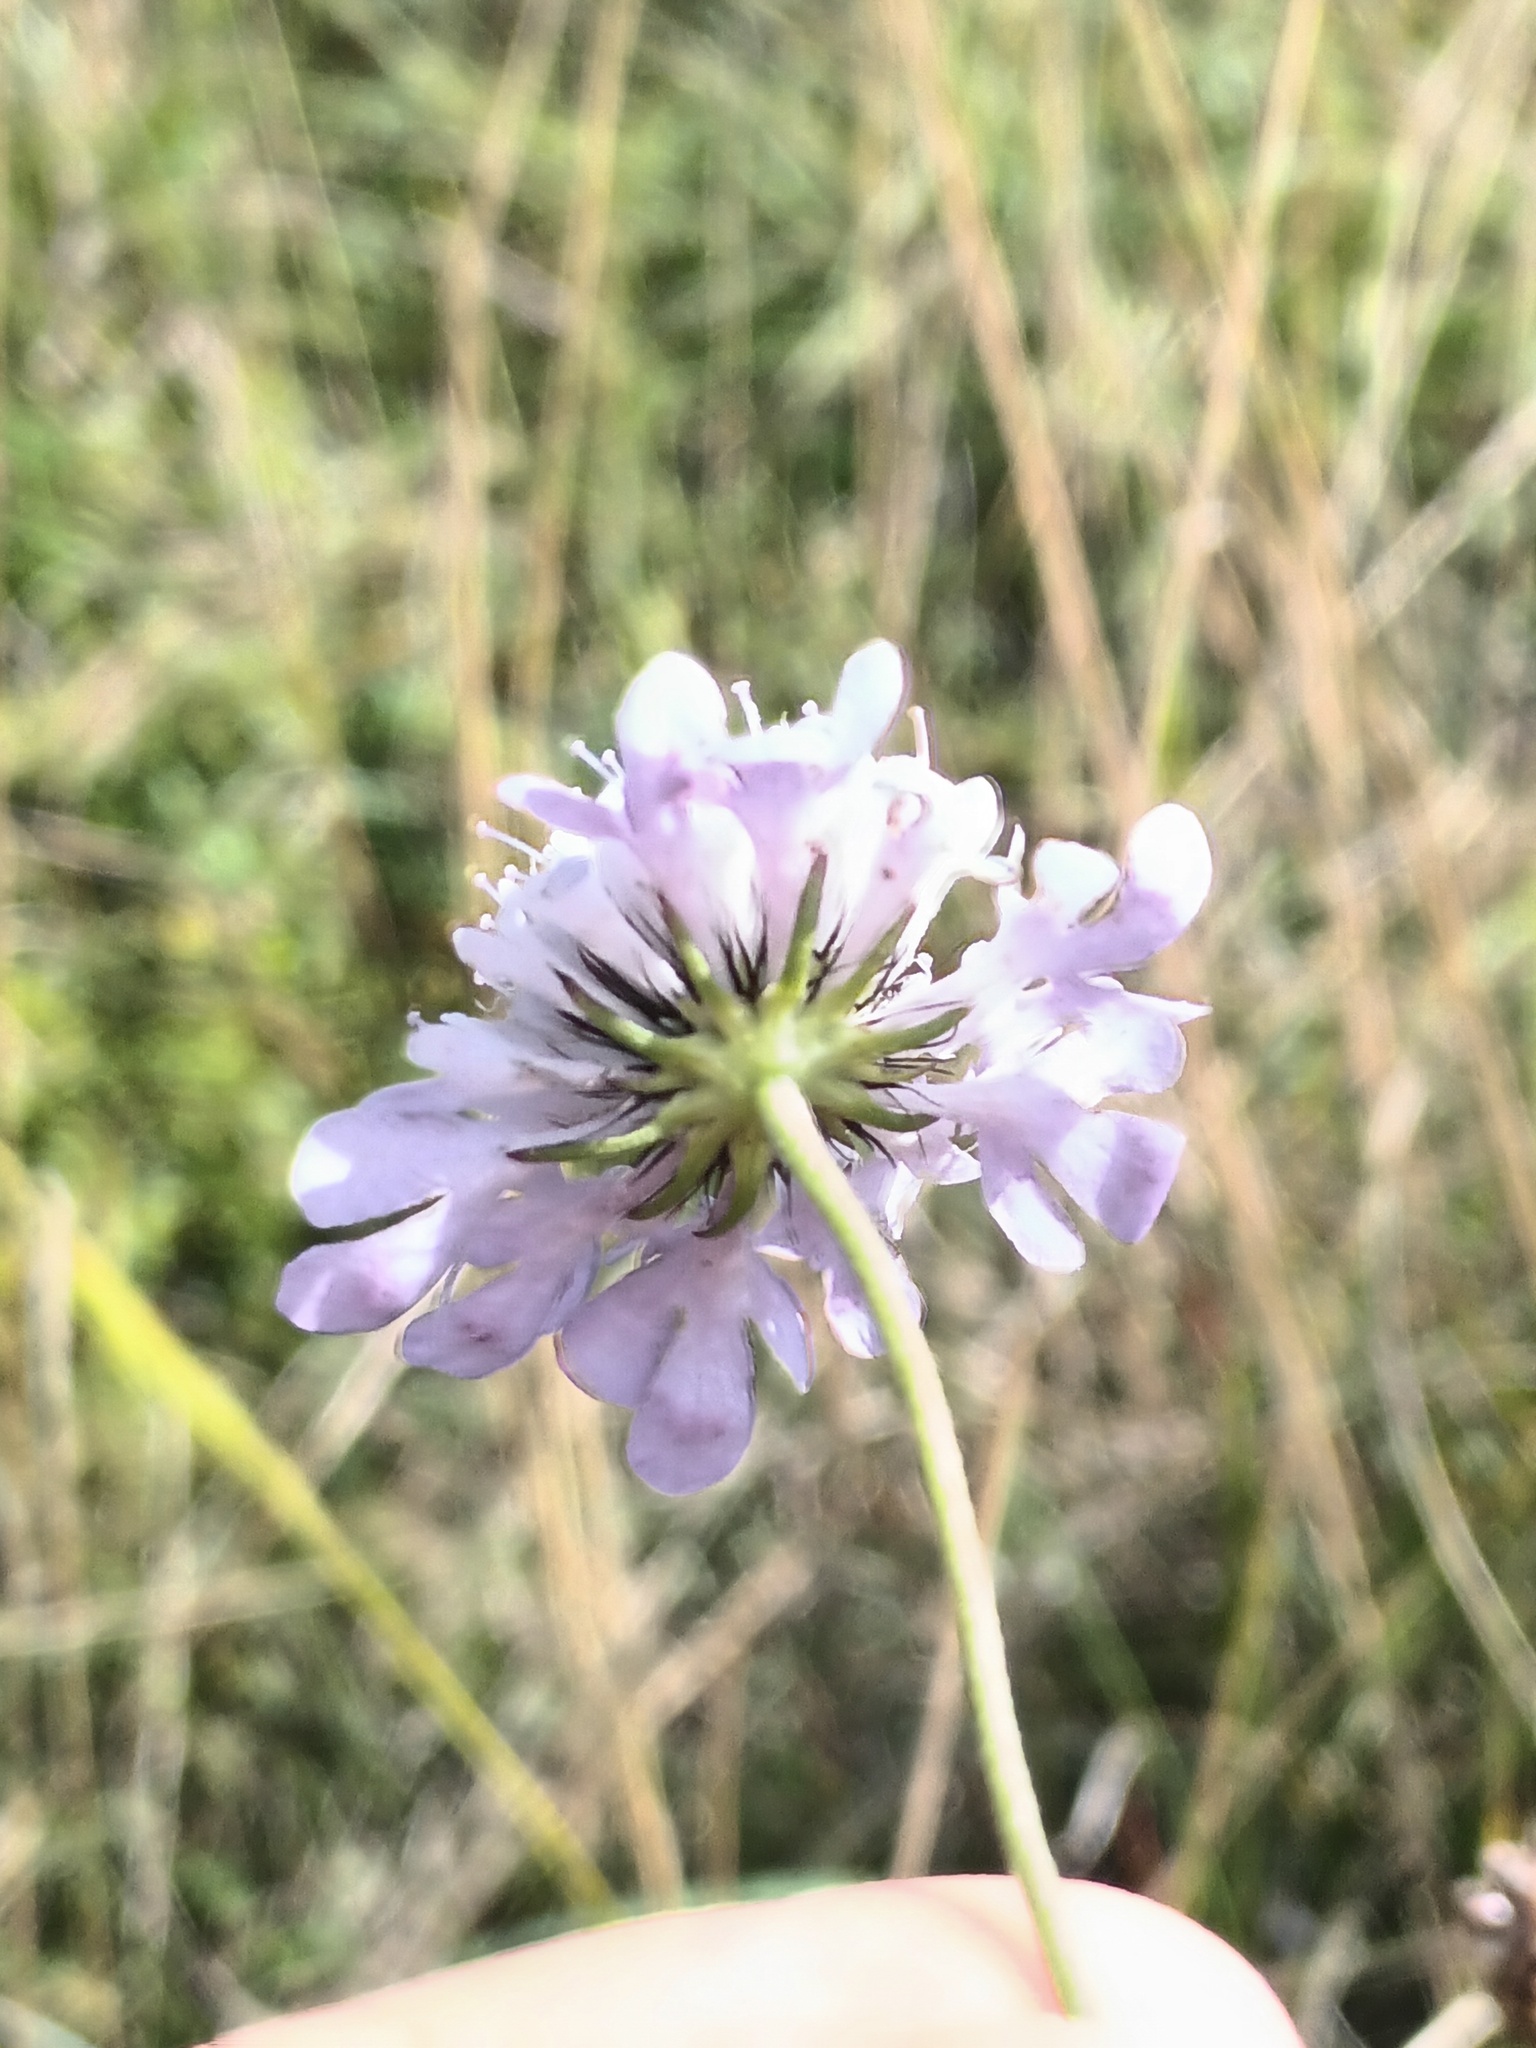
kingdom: Plantae
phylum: Tracheophyta
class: Magnoliopsida
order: Dipsacales
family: Caprifoliaceae
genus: Scabiosa
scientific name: Scabiosa columbaria
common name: Small scabious
